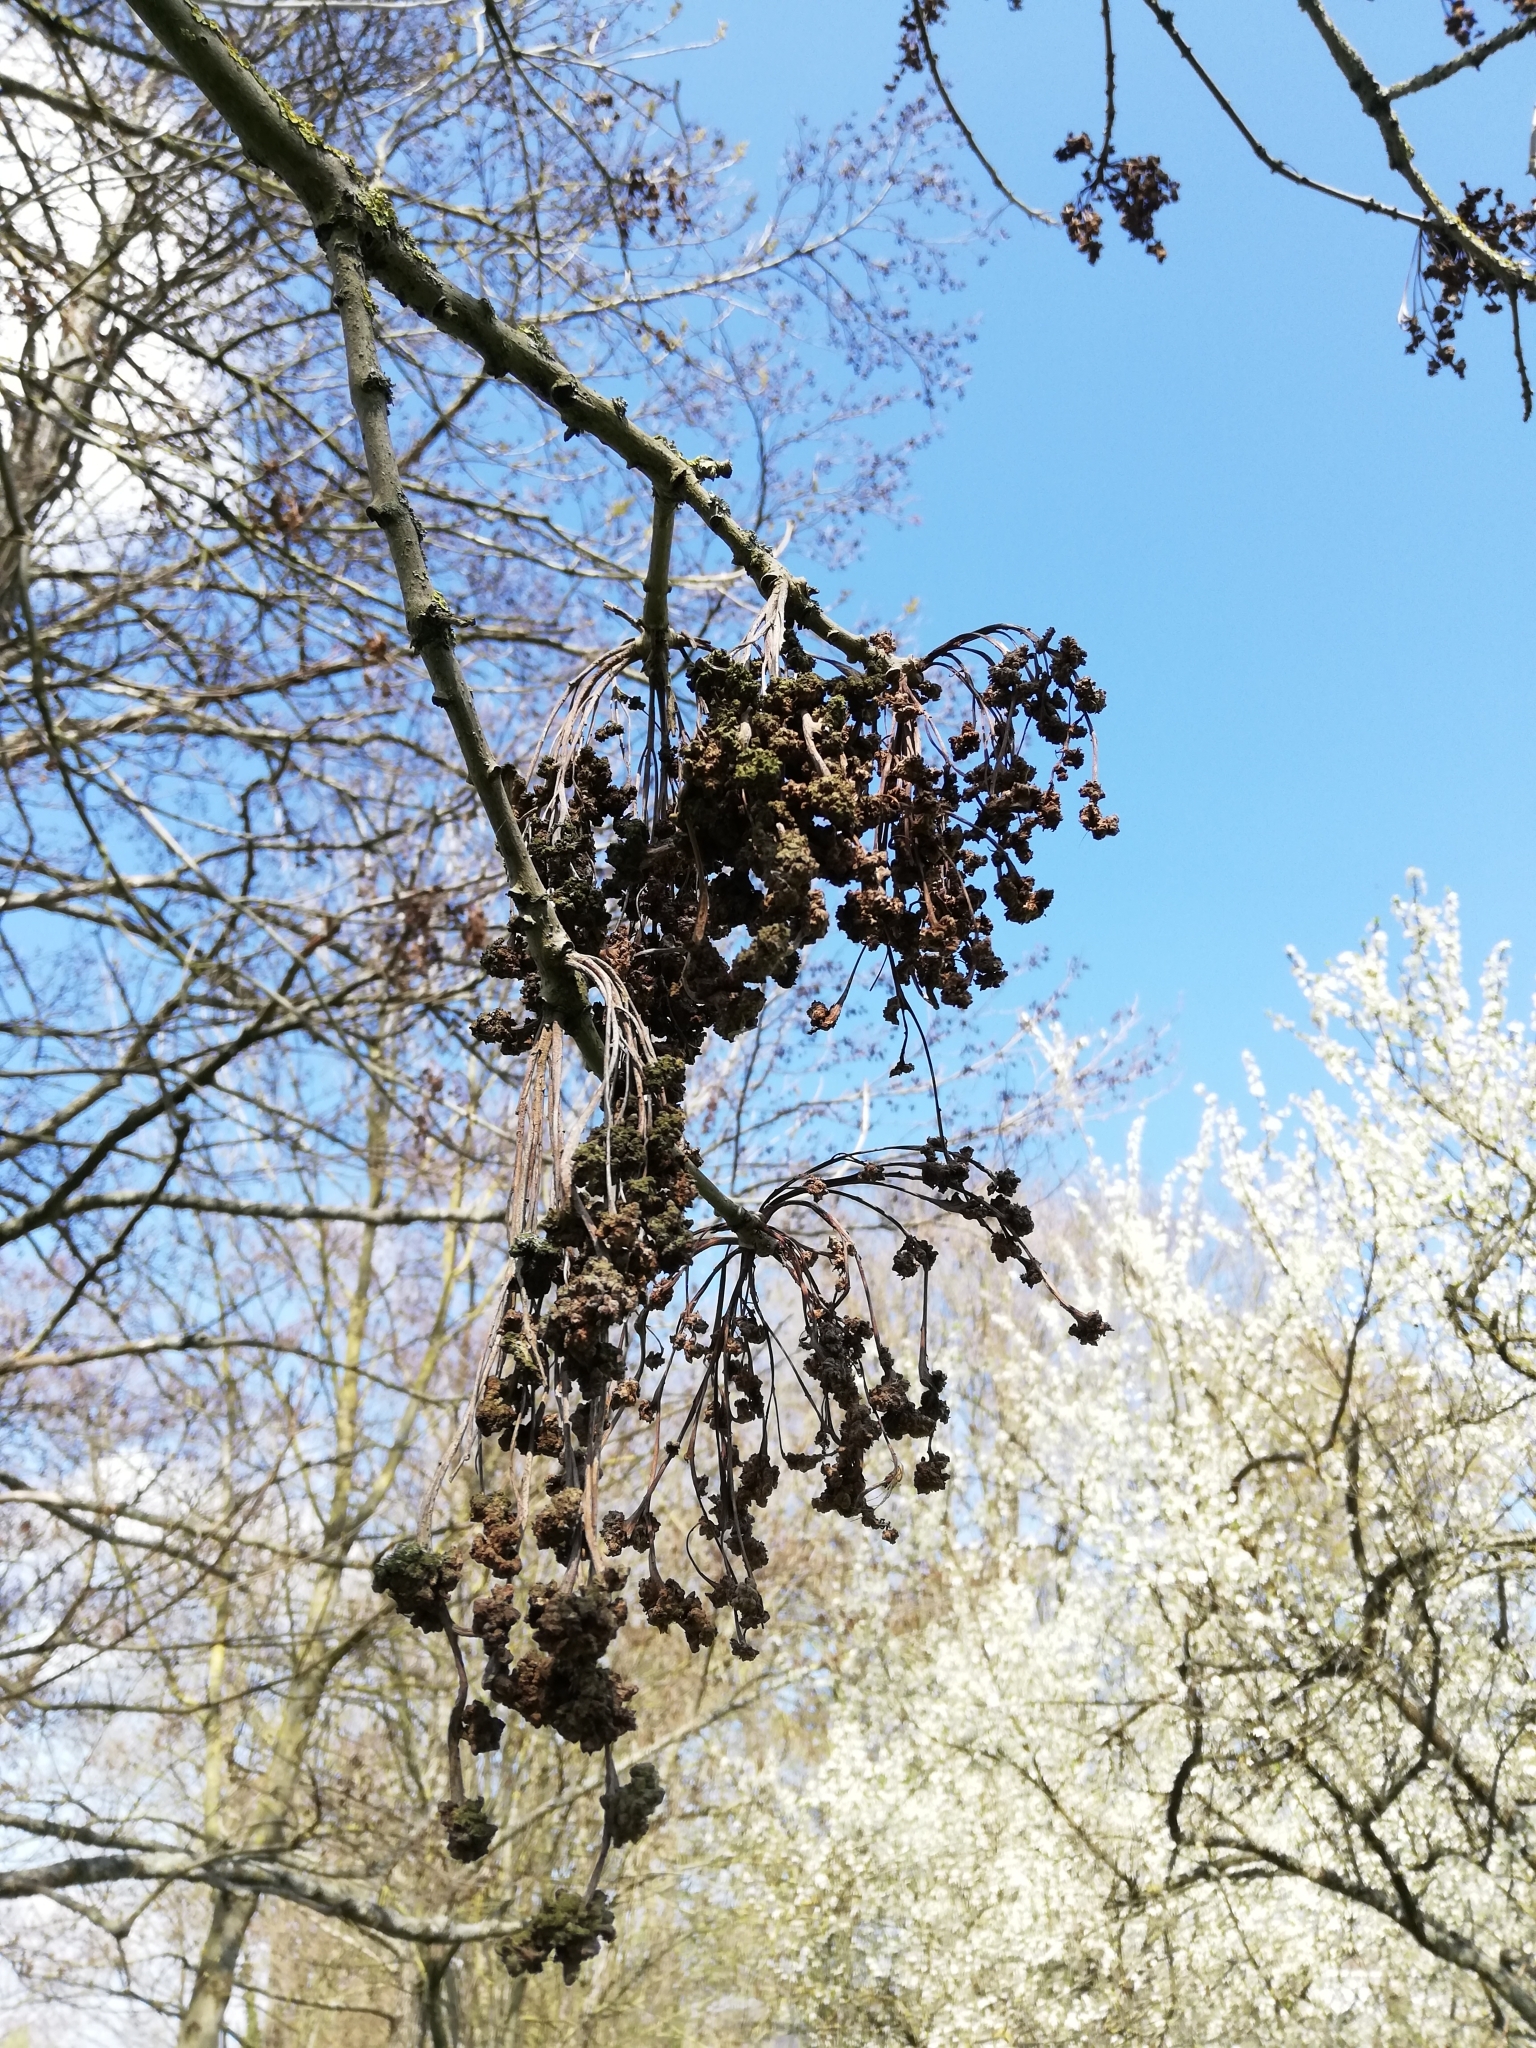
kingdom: Animalia
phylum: Arthropoda
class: Arachnida
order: Trombidiformes
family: Eriophyidae
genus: Aceria
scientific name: Aceria fraxinivora
